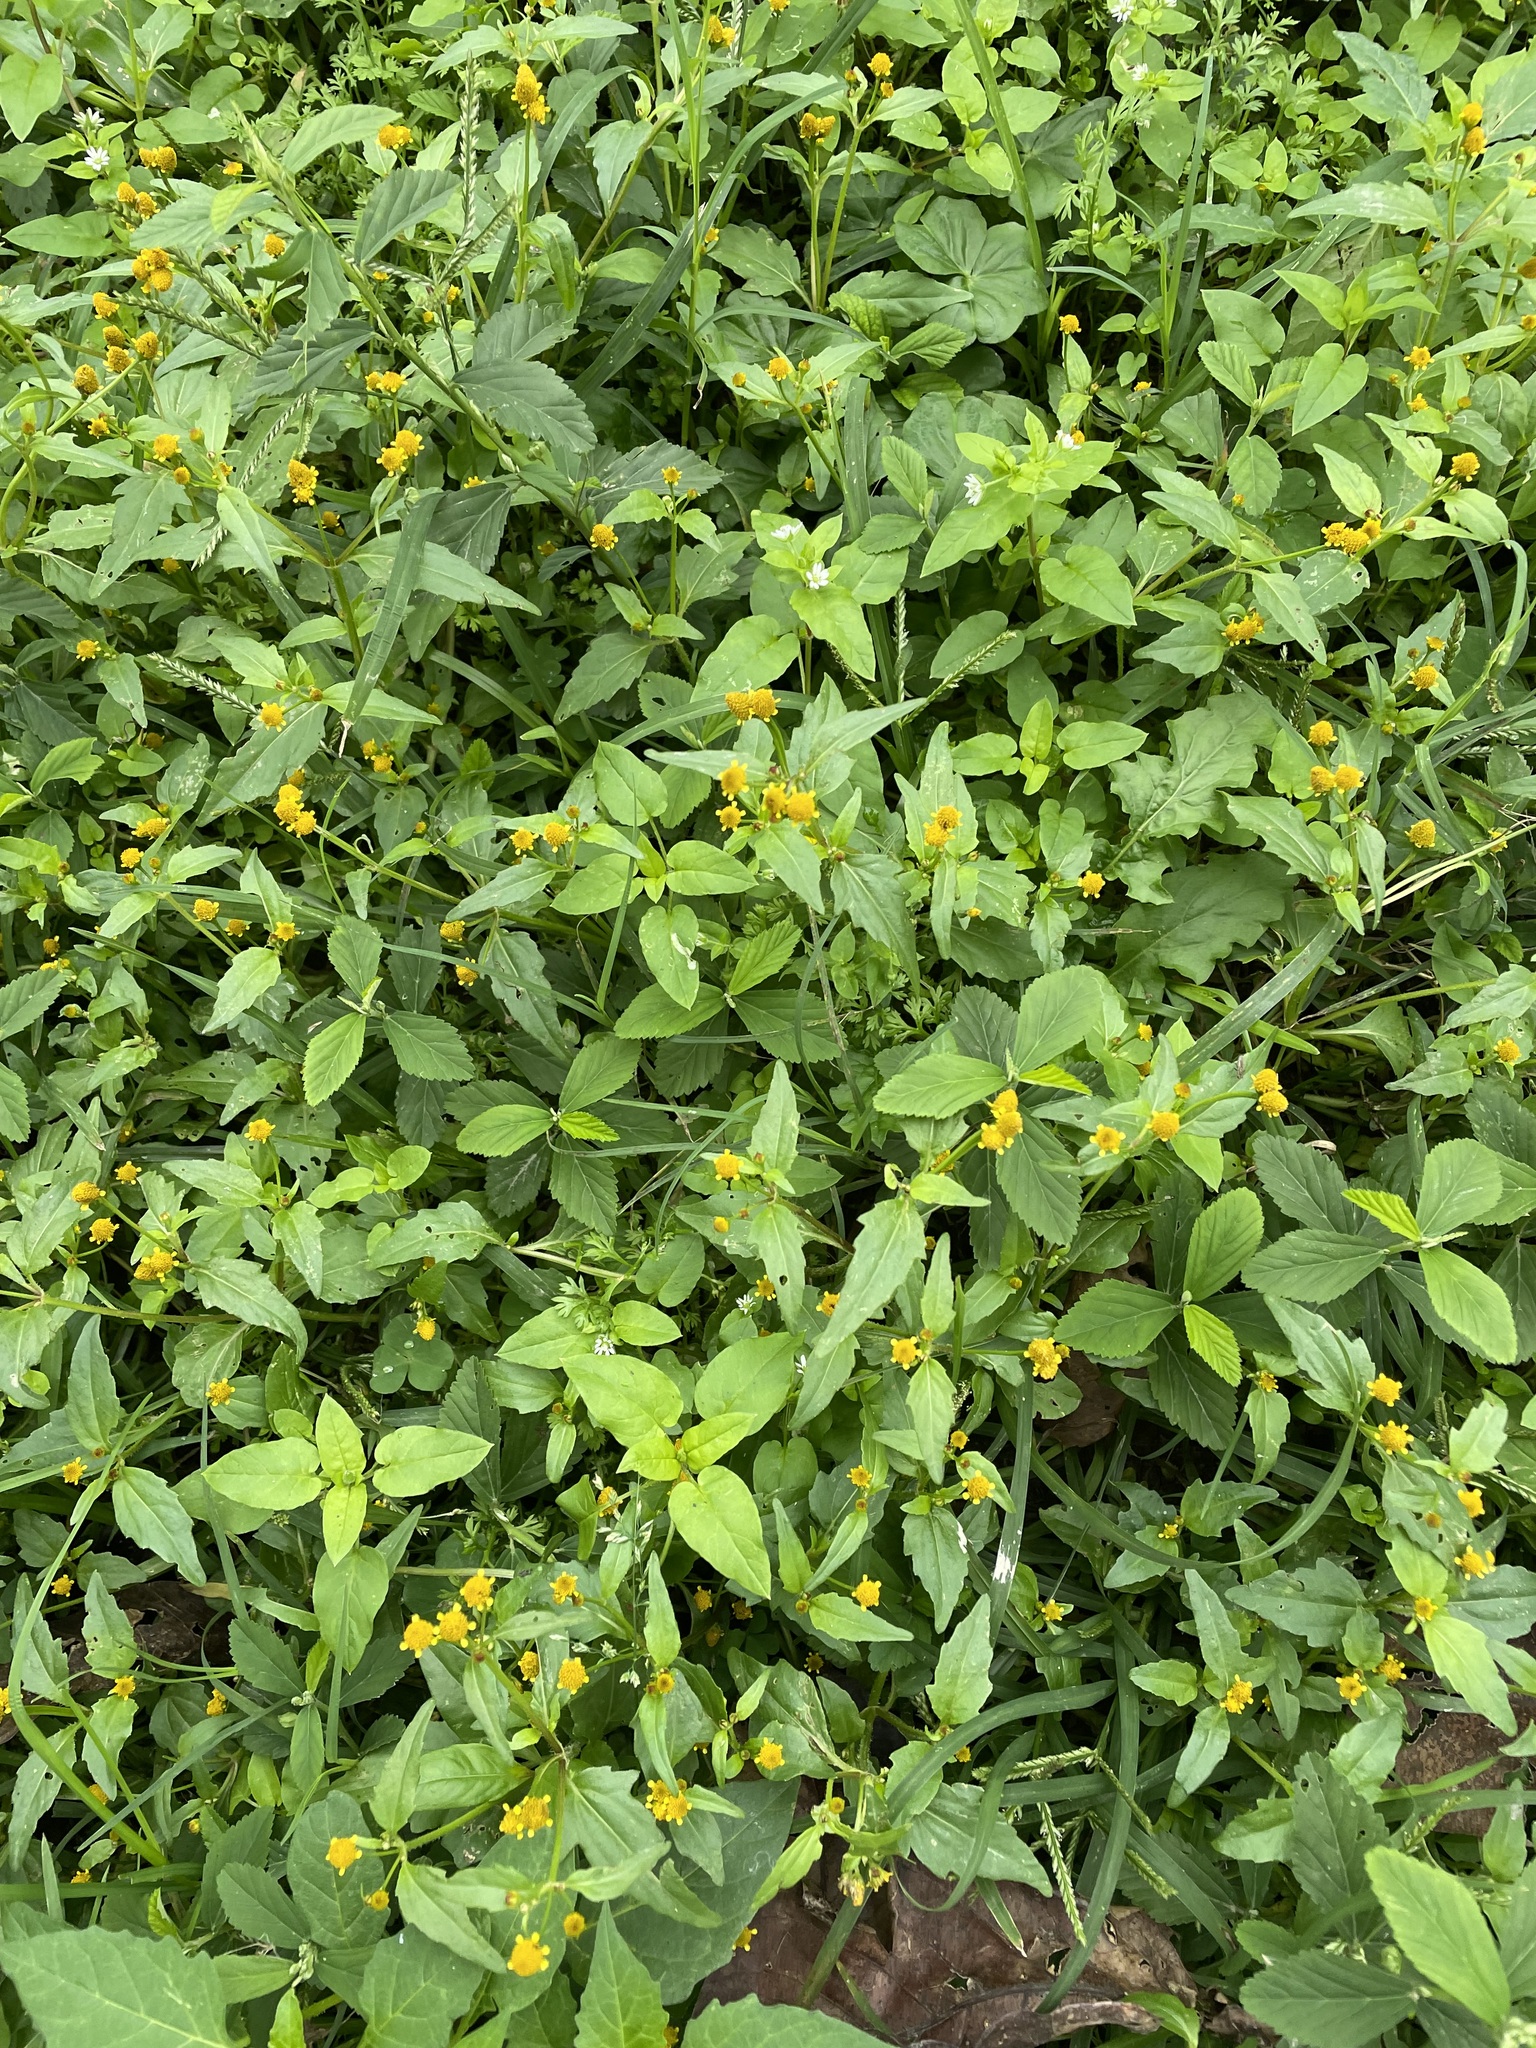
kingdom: Plantae
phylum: Tracheophyta
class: Magnoliopsida
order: Asterales
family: Asteraceae
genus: Acmella
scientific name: Acmella uliginosa
